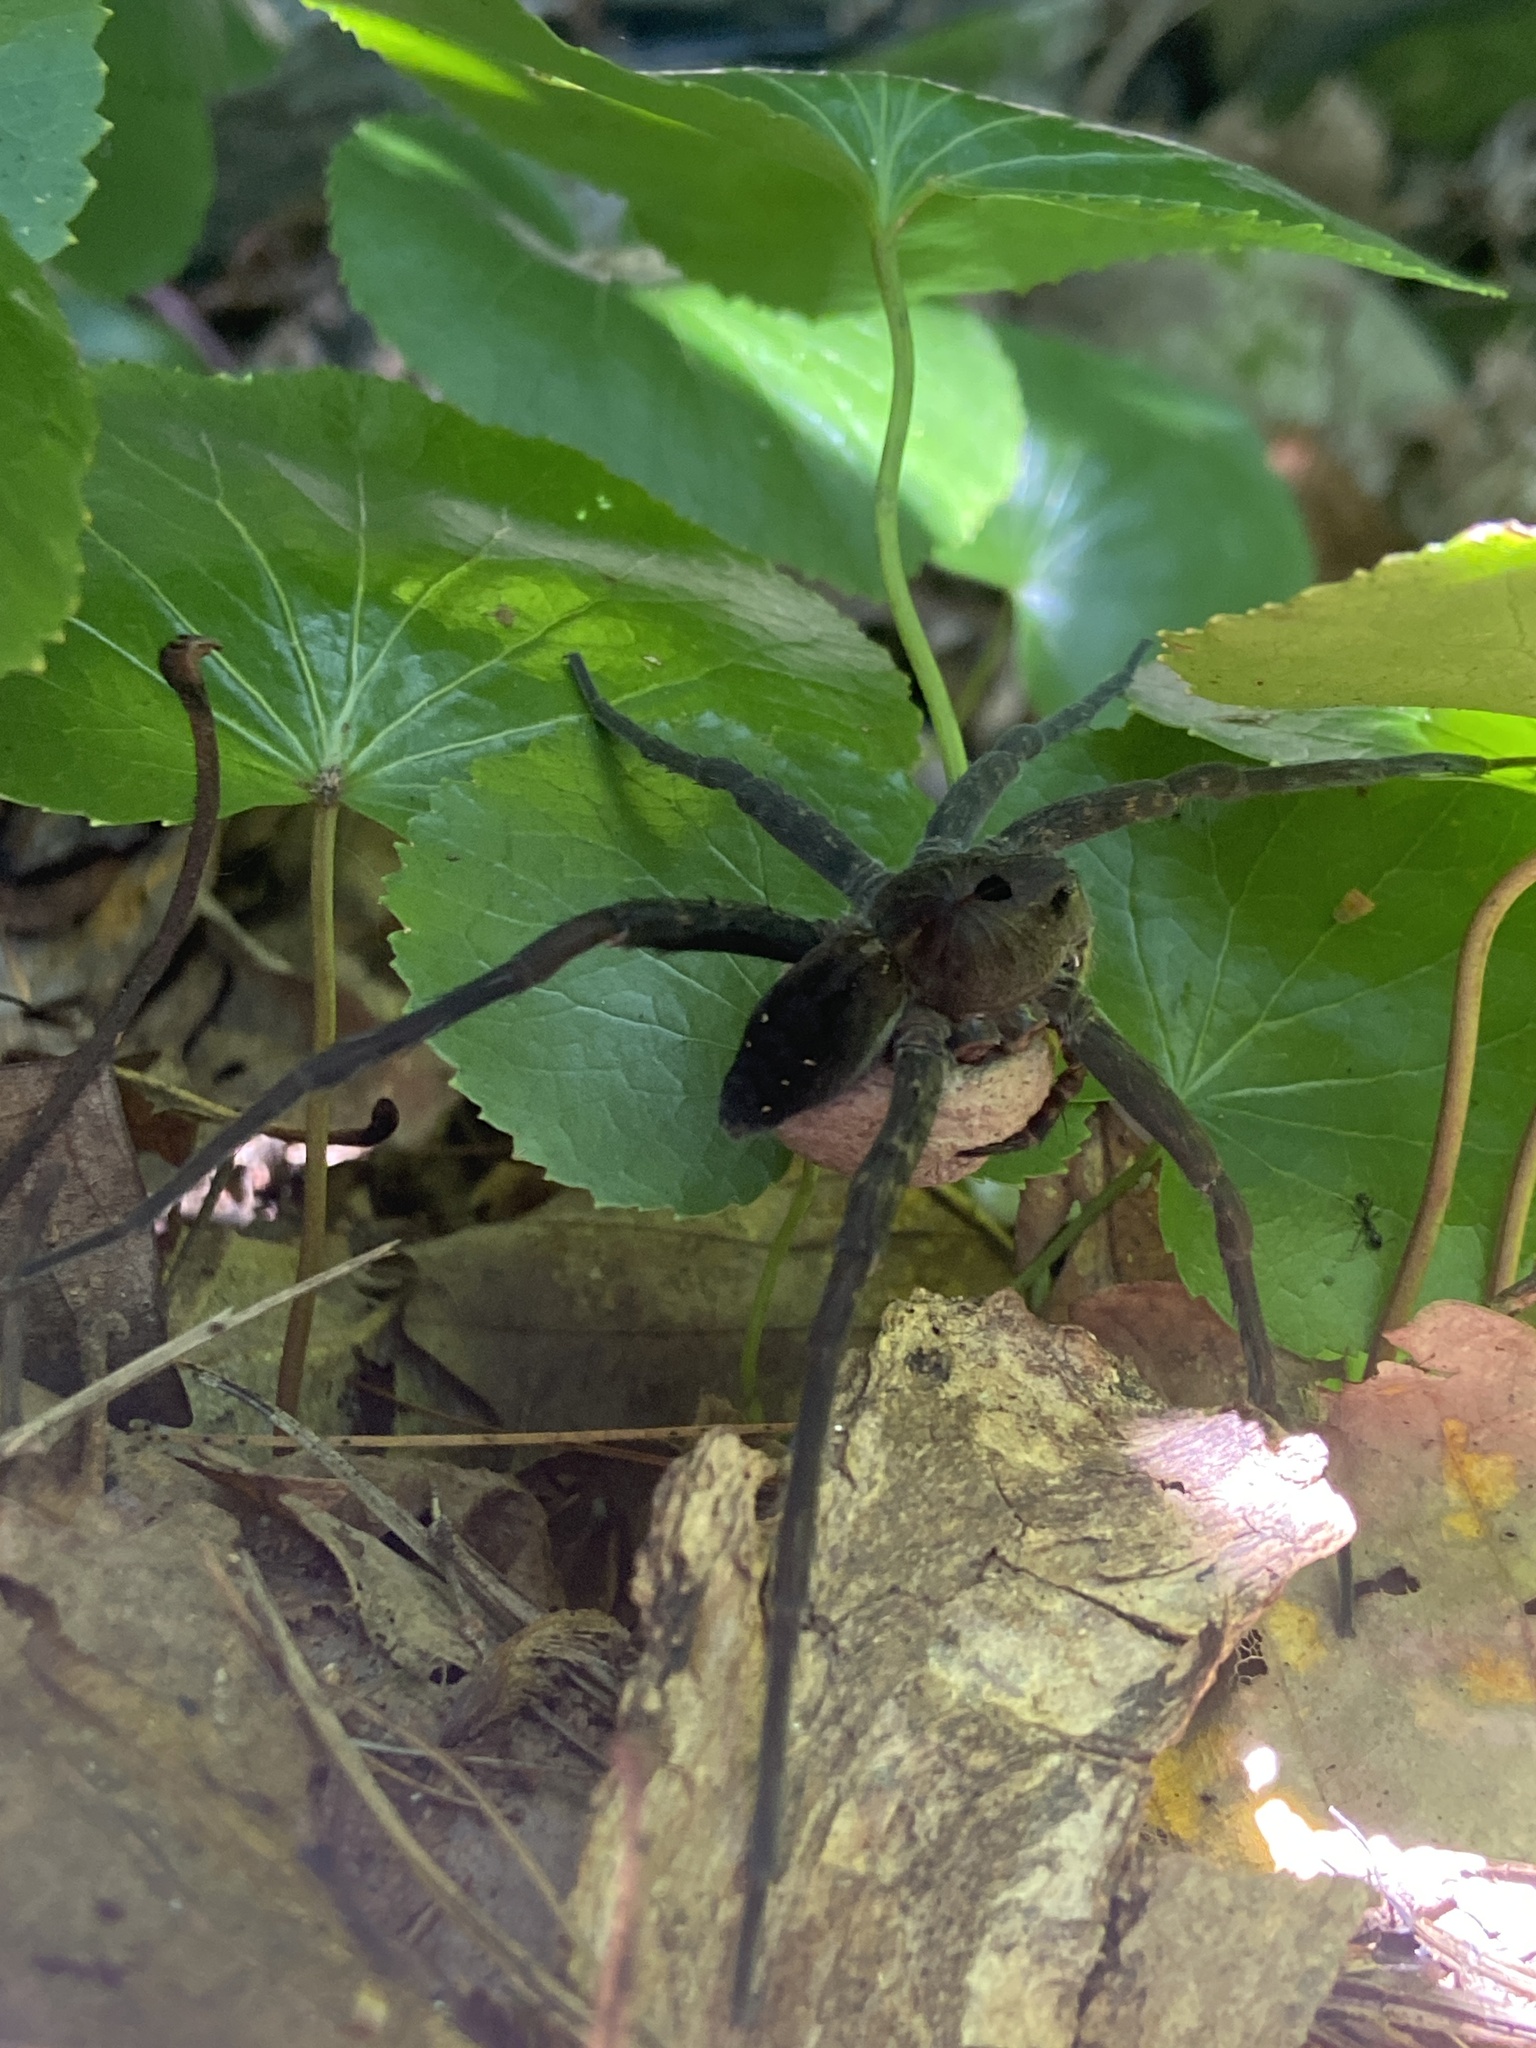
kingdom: Animalia
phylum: Arthropoda
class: Arachnida
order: Araneae
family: Pisauridae
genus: Dolomedes
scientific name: Dolomedes vittatus
